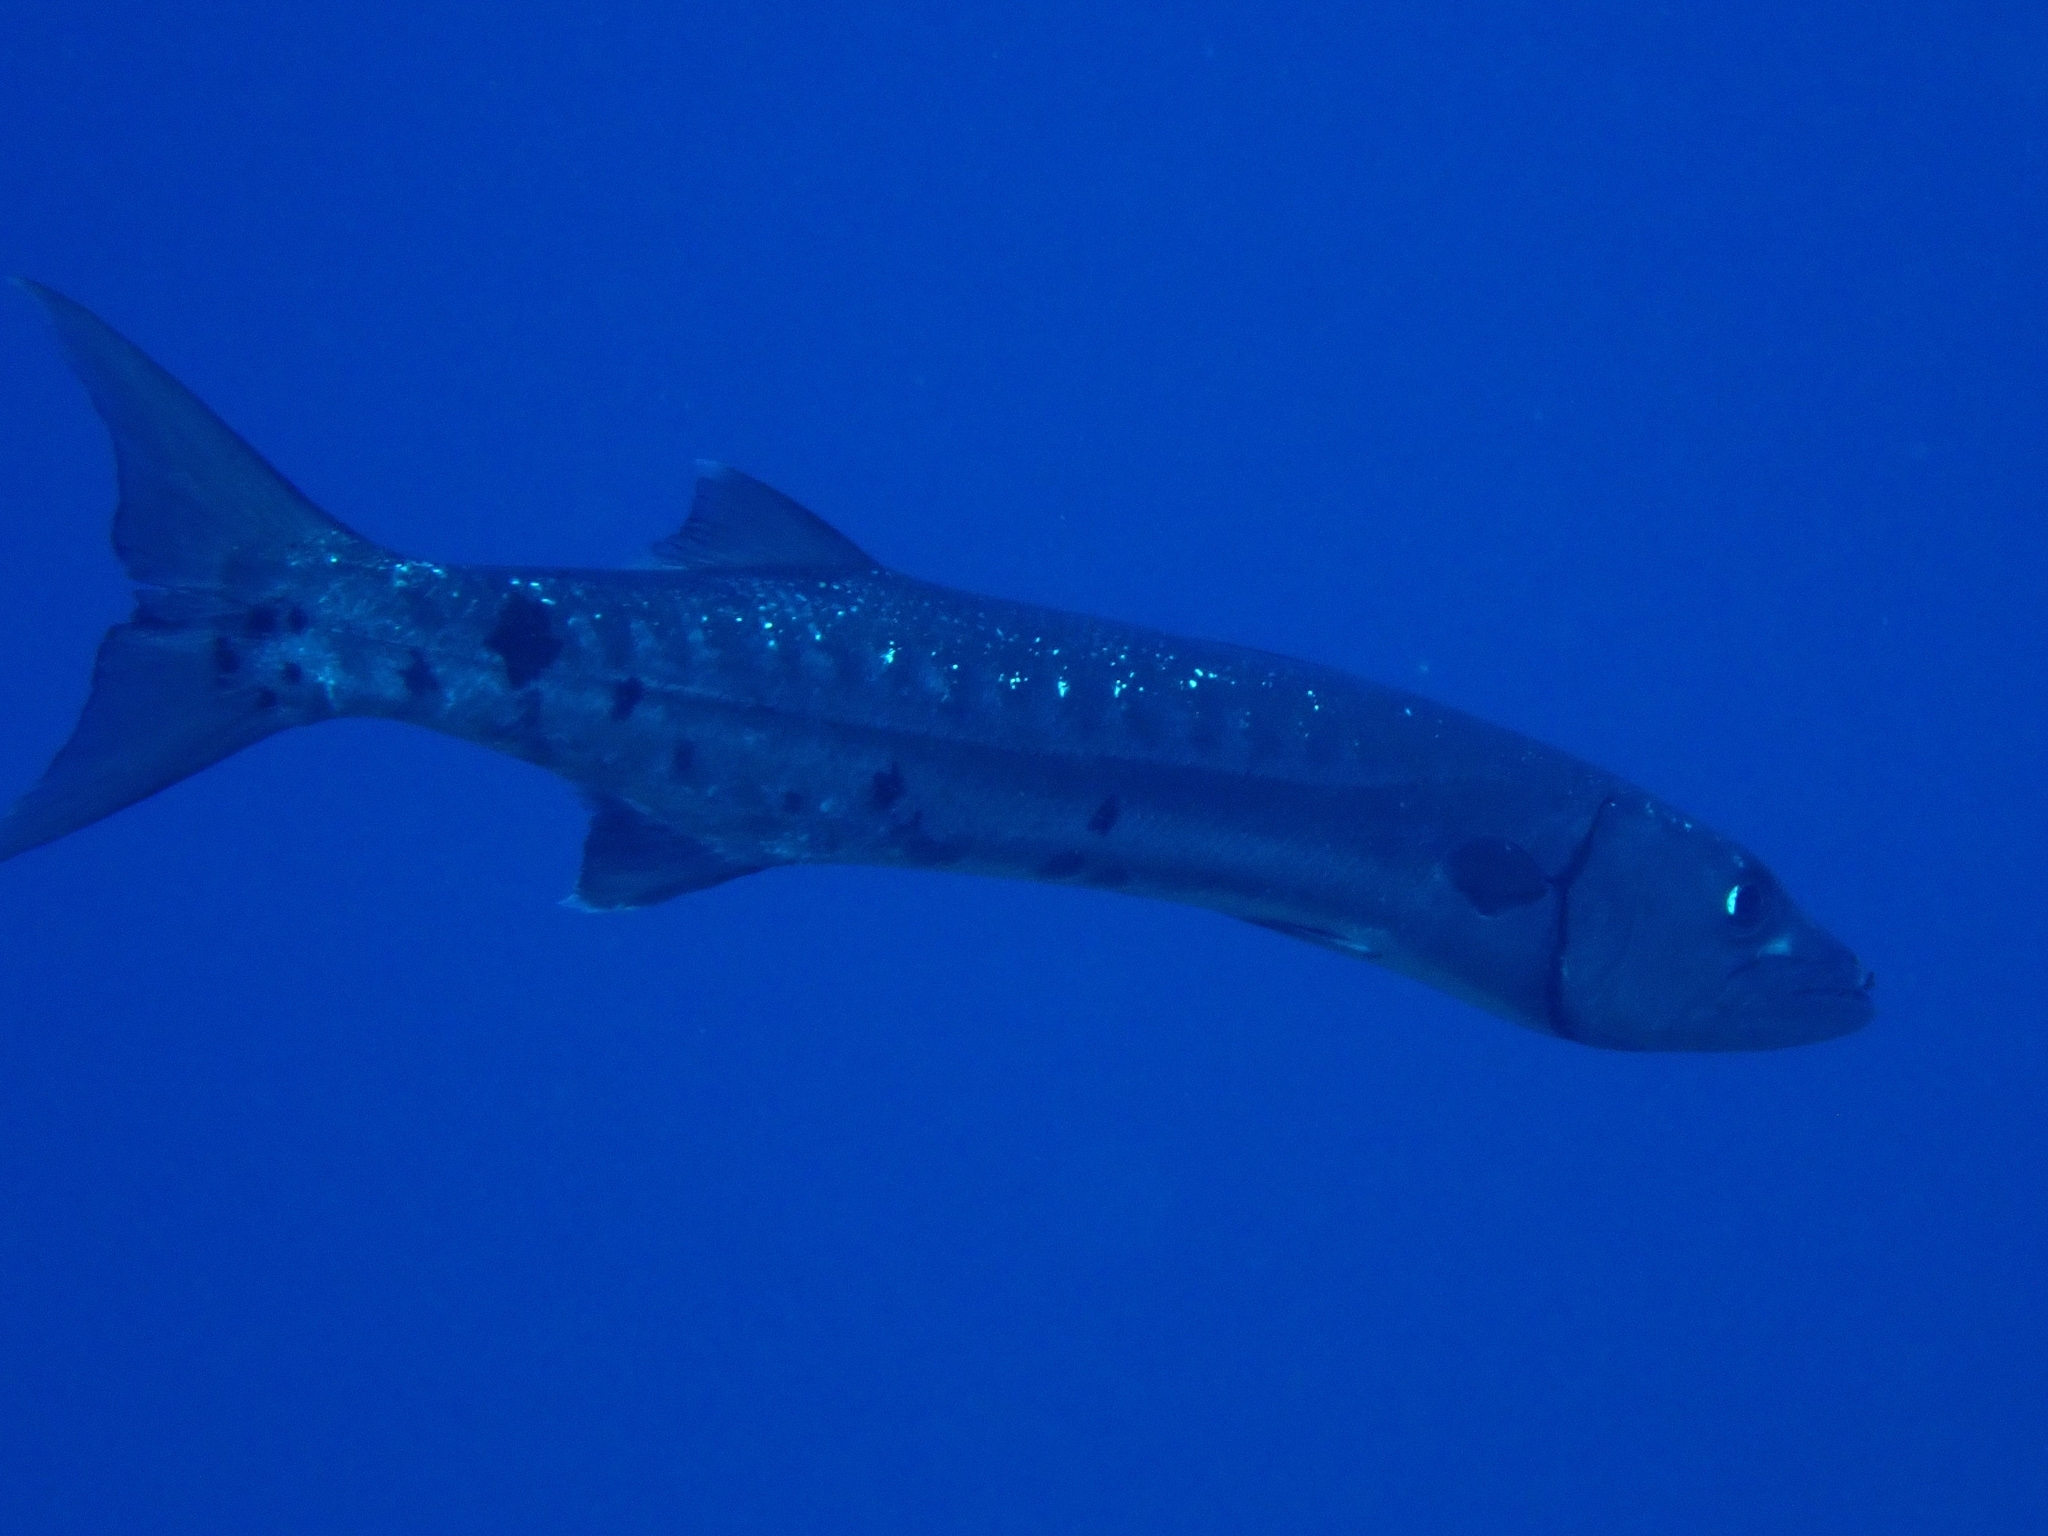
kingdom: Animalia
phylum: Chordata
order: Perciformes
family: Sphyraenidae
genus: Sphyraena
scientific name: Sphyraena barracuda
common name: Great barracuda
